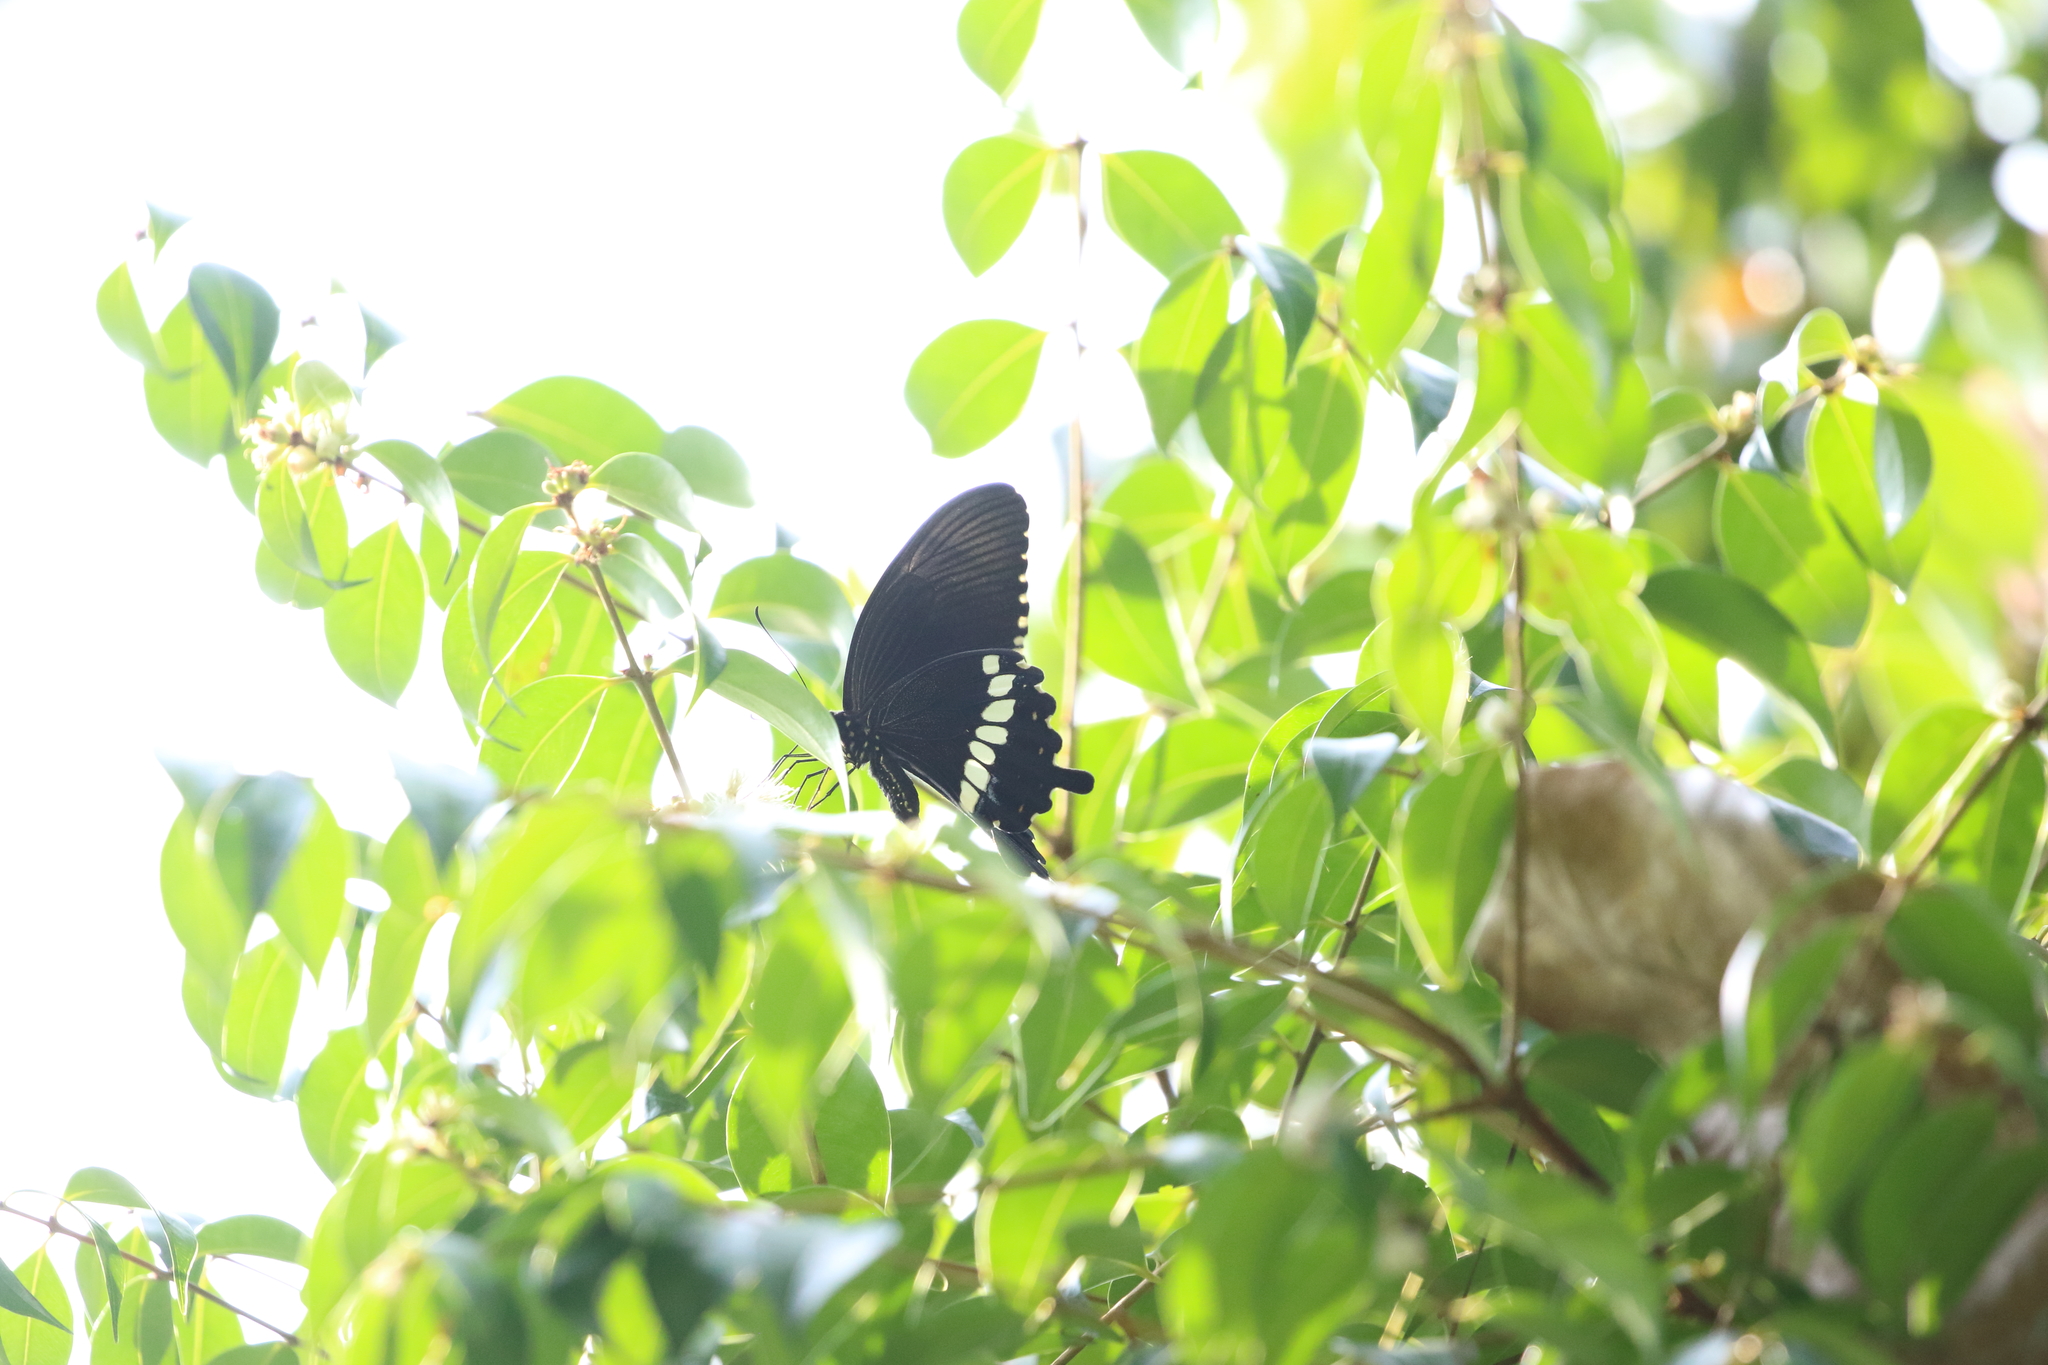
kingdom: Animalia
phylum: Arthropoda
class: Insecta
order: Lepidoptera
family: Papilionidae
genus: Papilio
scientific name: Papilio polytes
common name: Common mormon
